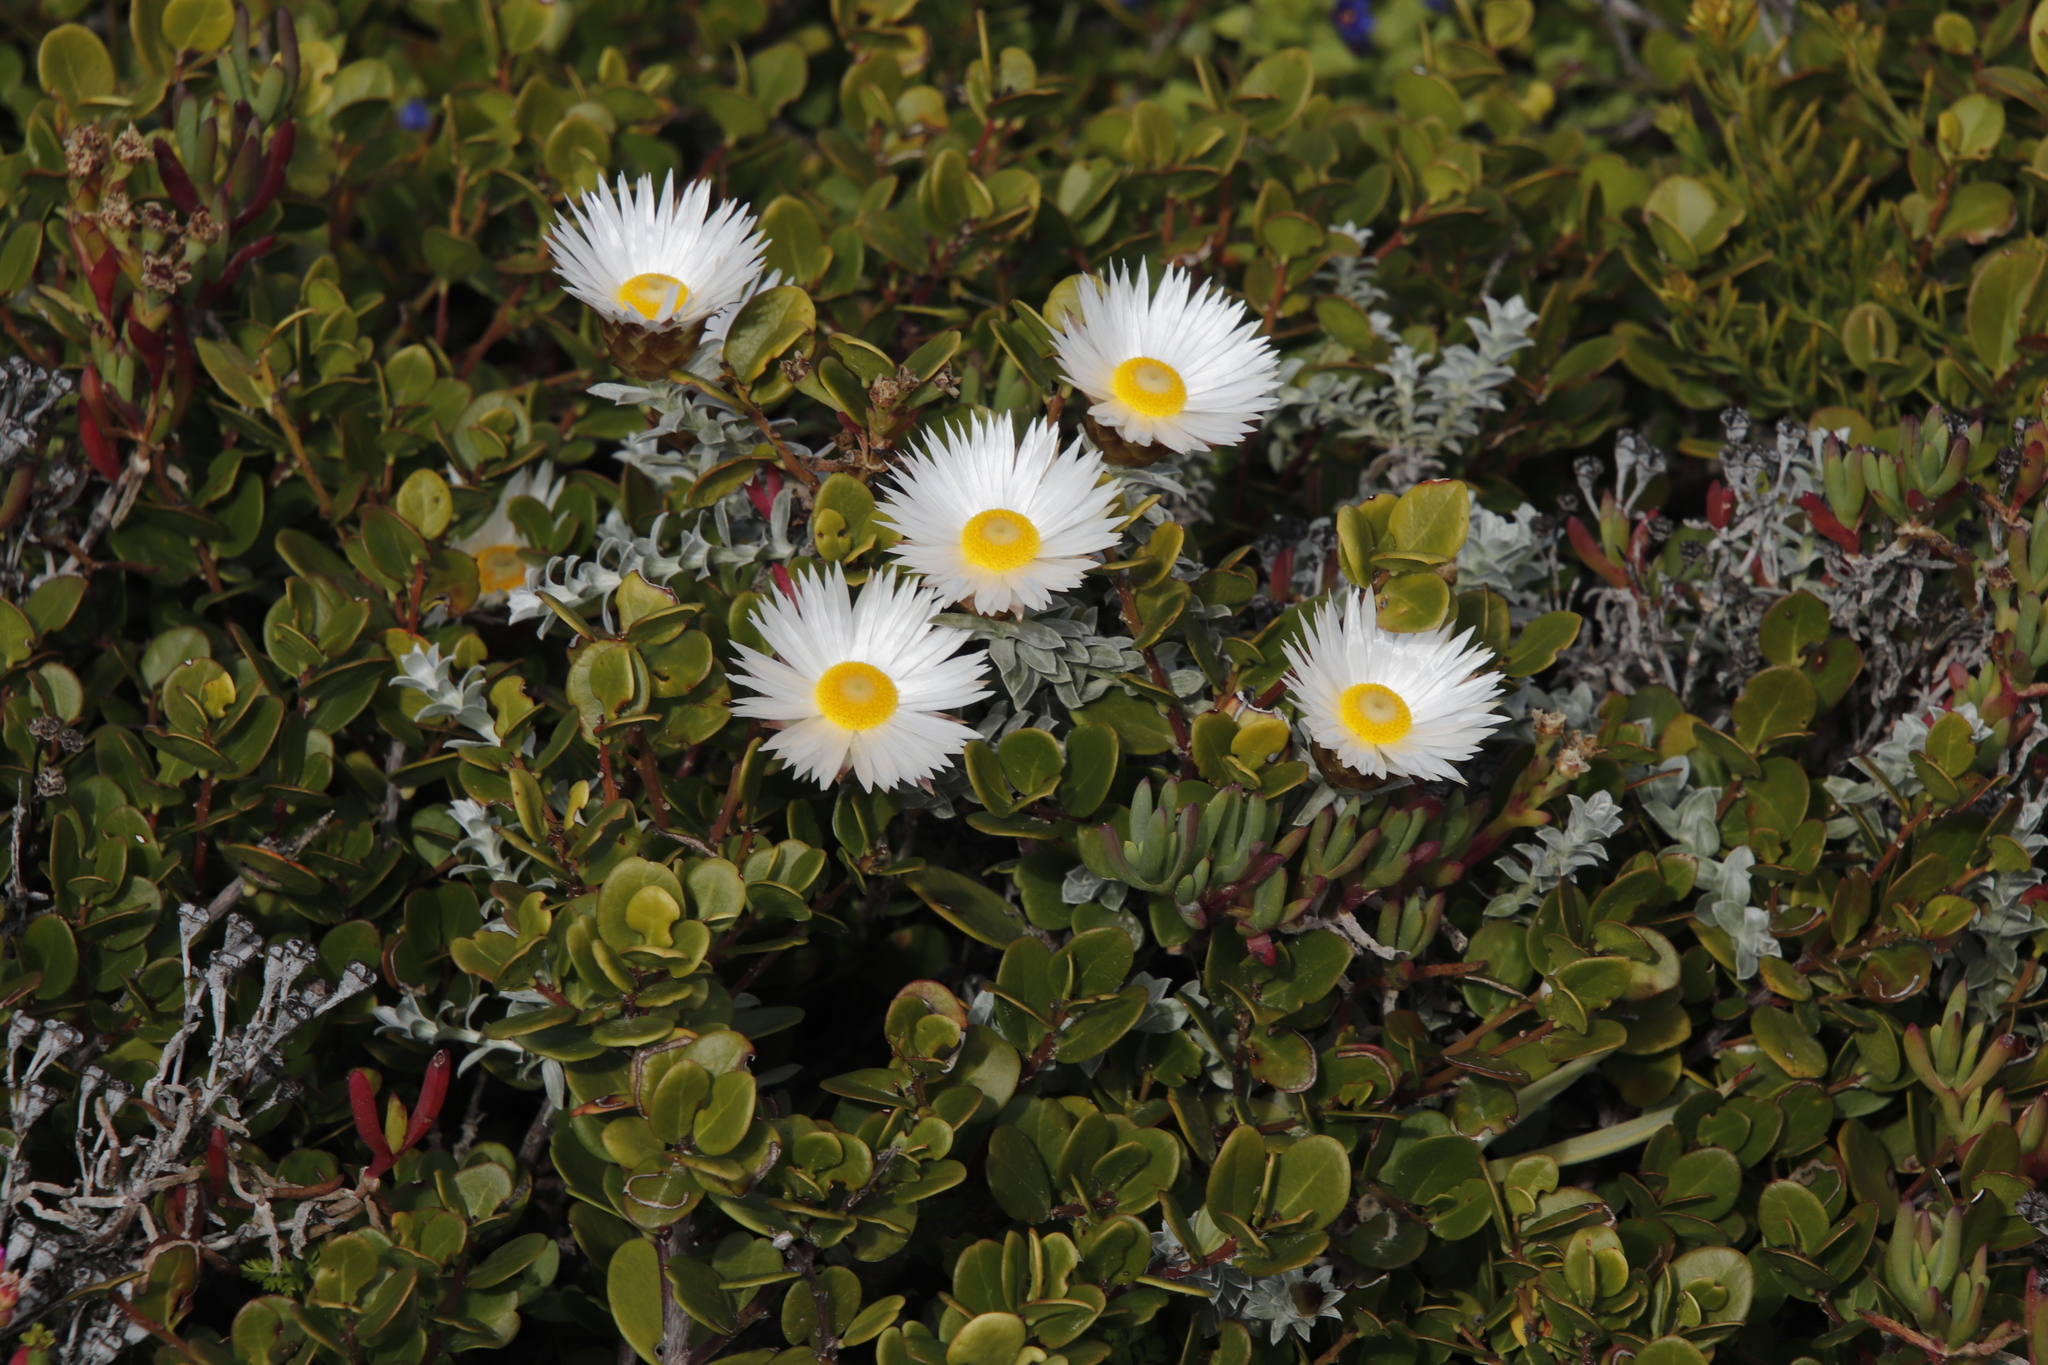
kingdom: Plantae
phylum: Tracheophyta
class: Magnoliopsida
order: Asterales
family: Asteraceae
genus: Helichrysum
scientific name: Helichrysum retortum
